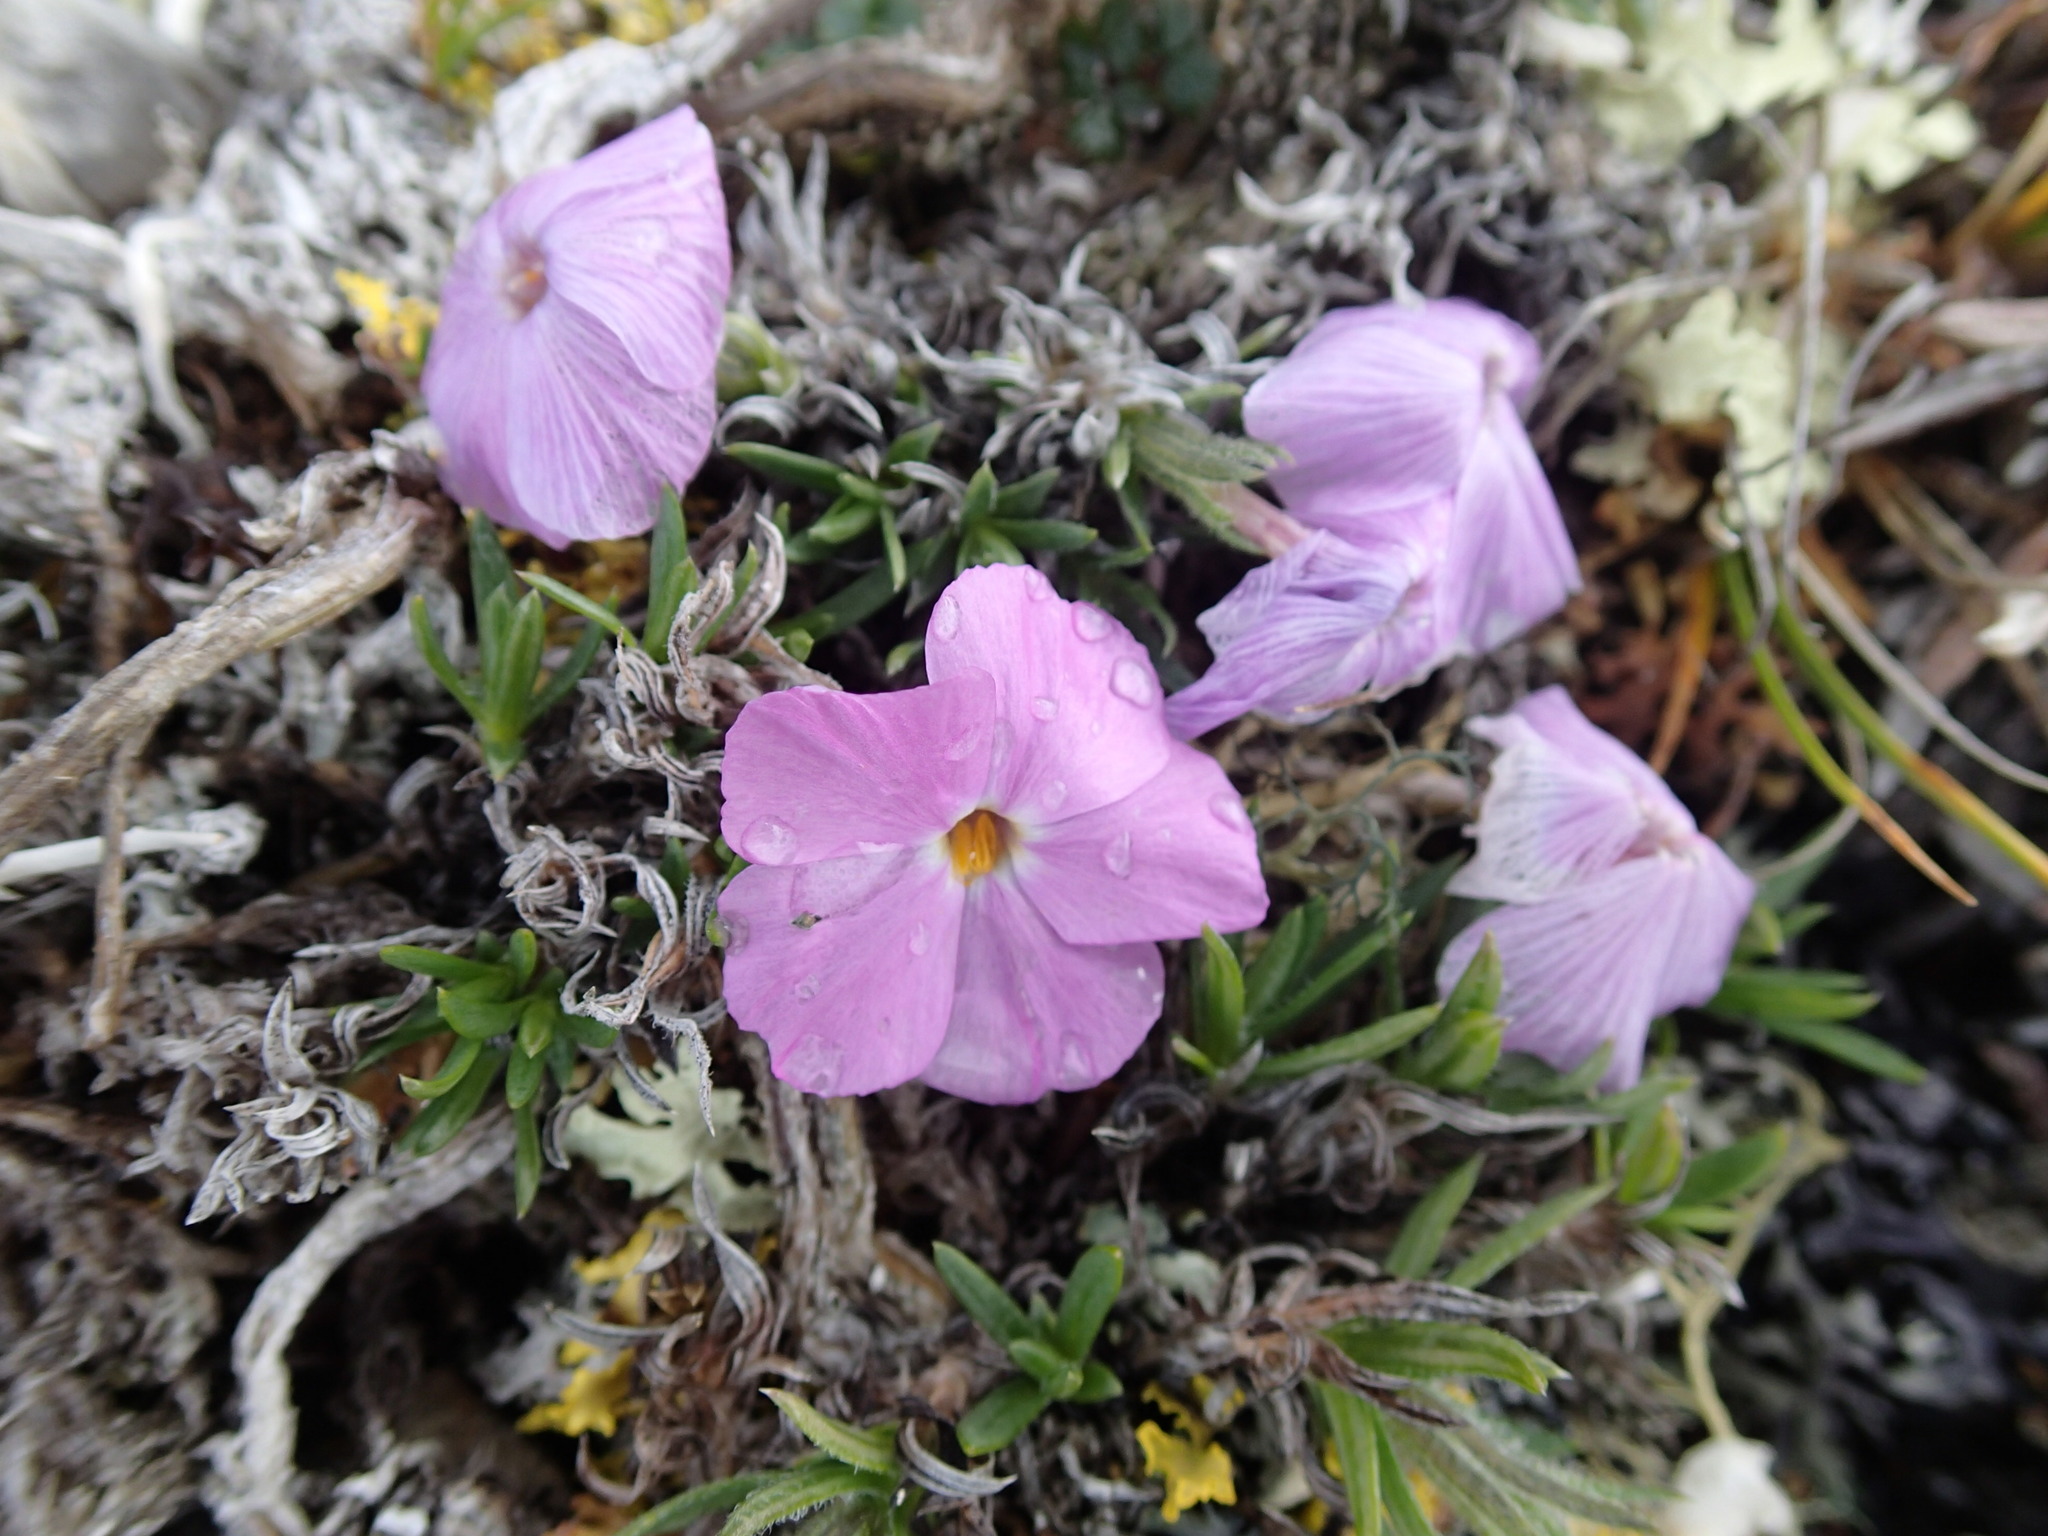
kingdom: Plantae
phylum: Tracheophyta
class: Magnoliopsida
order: Ericales
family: Polemoniaceae
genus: Phlox
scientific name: Phlox richardsonii
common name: Richardson's phlox
